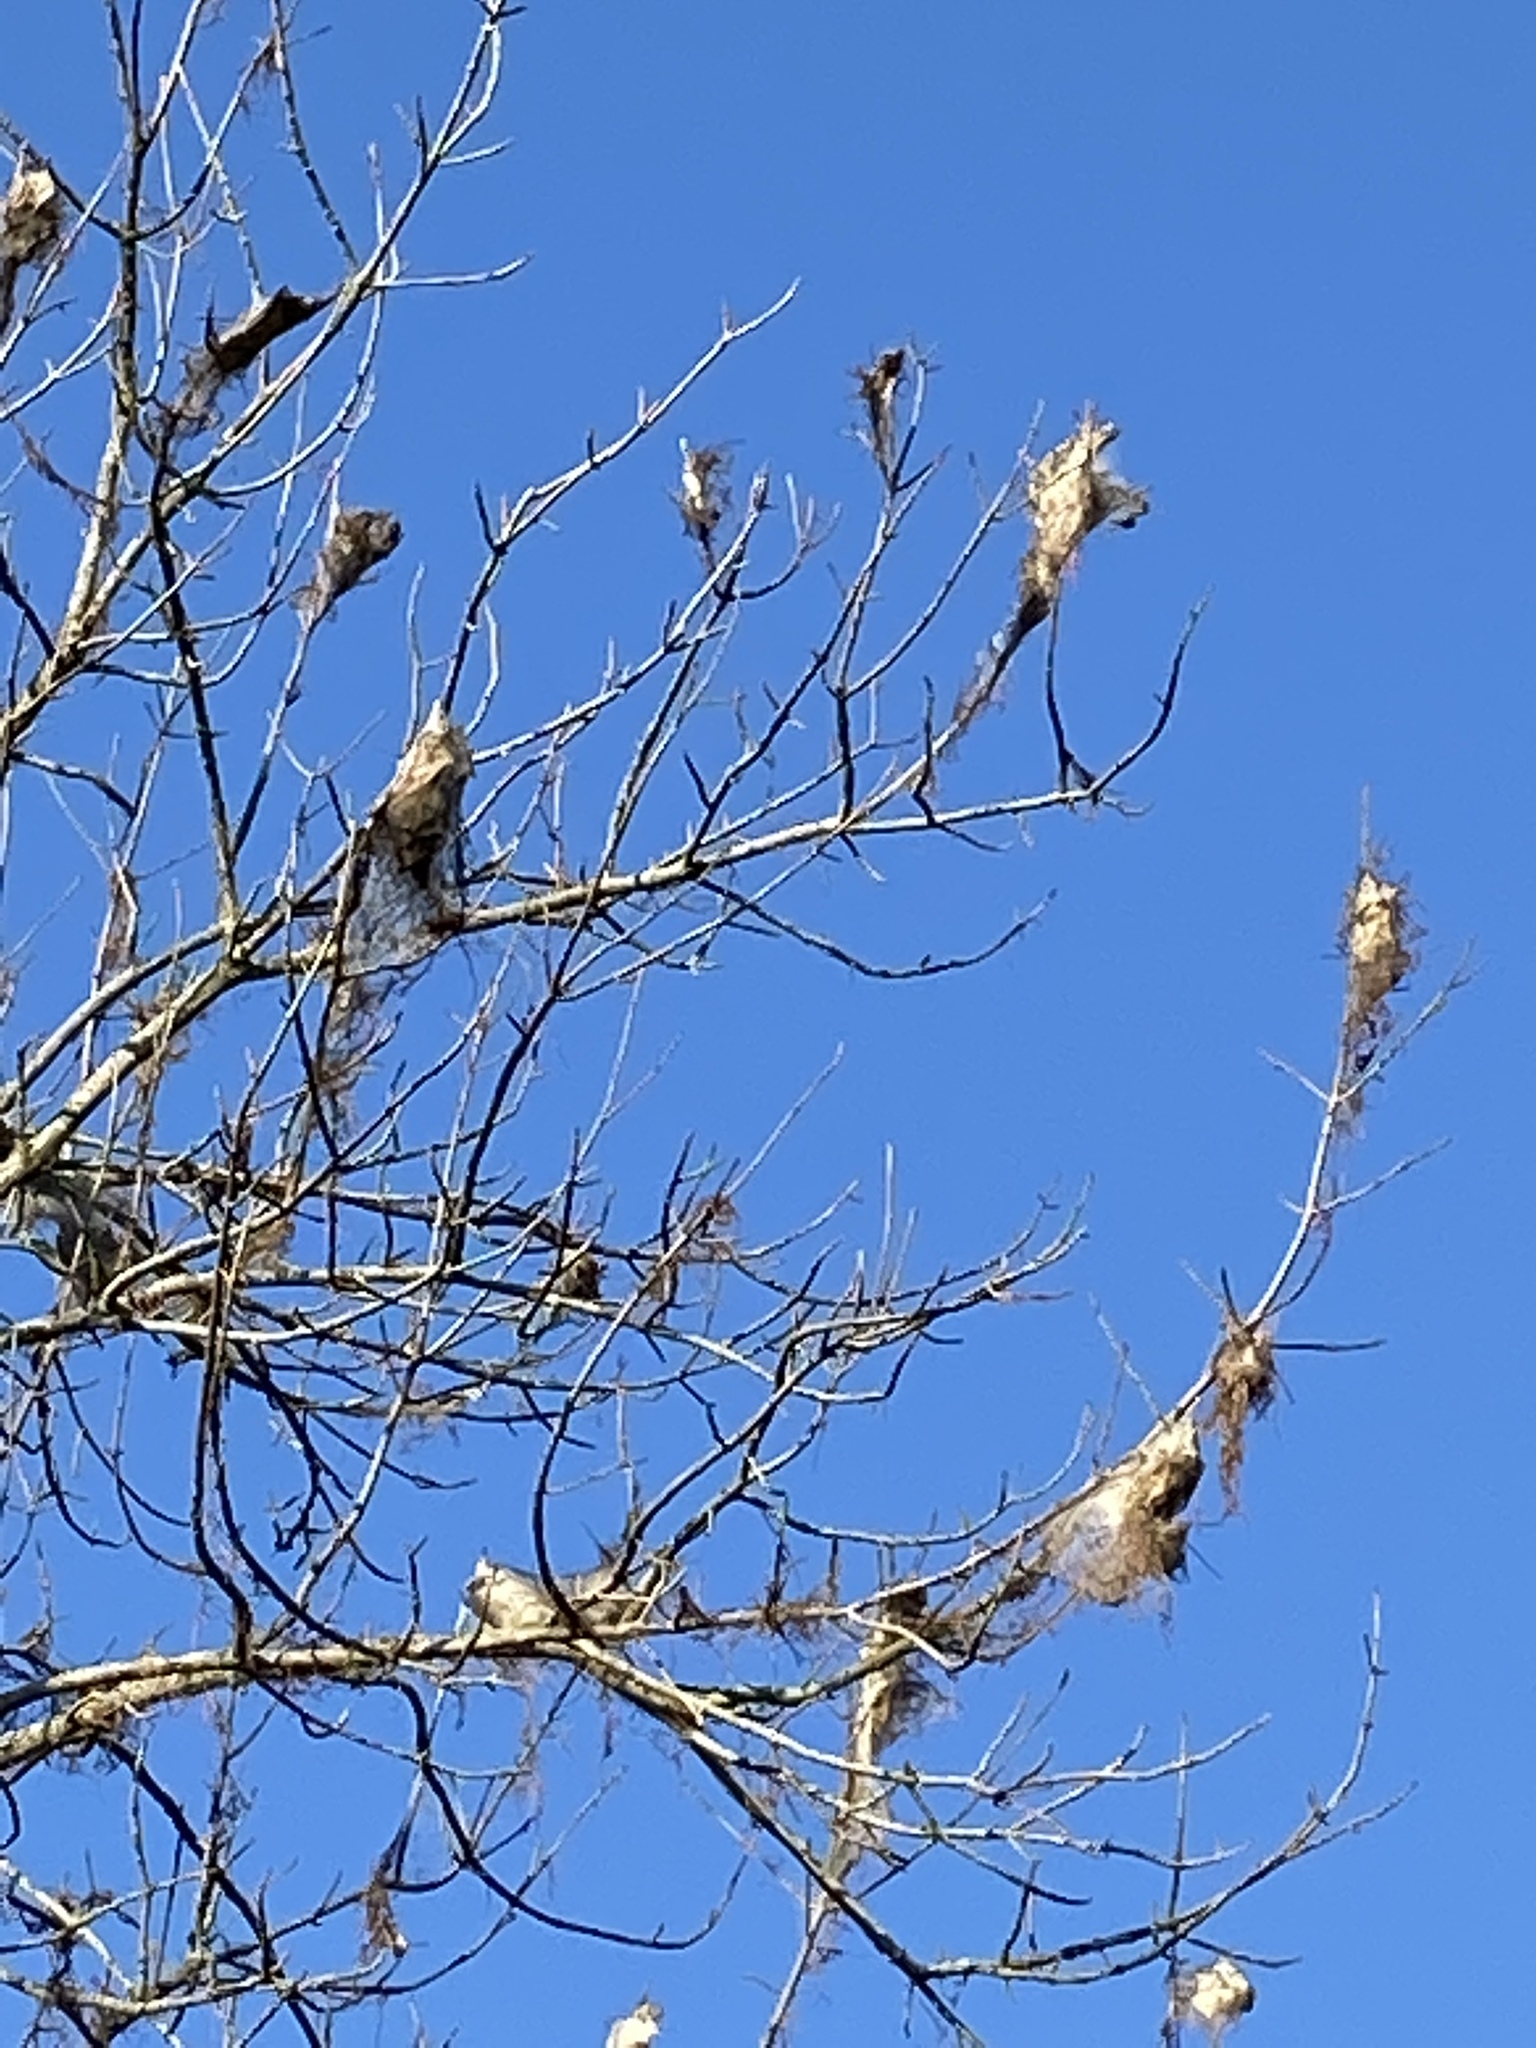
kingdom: Animalia
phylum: Arthropoda
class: Insecta
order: Lepidoptera
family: Erebidae
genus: Hyphantria
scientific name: Hyphantria cunea
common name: American white moth
